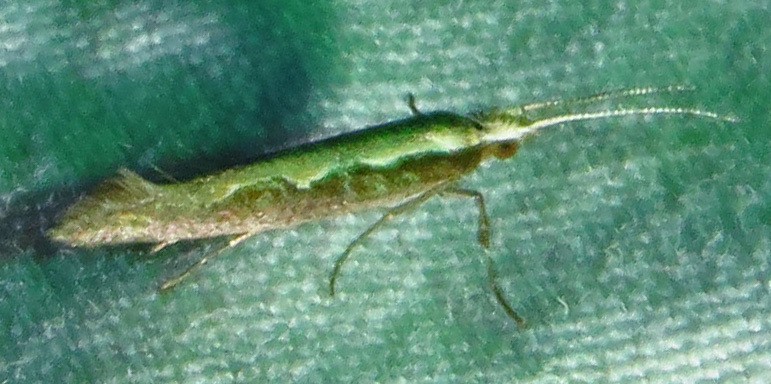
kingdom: Animalia
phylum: Arthropoda
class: Insecta
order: Lepidoptera
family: Plutellidae
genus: Plutella
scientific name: Plutella xylostella
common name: Diamond-back moth
